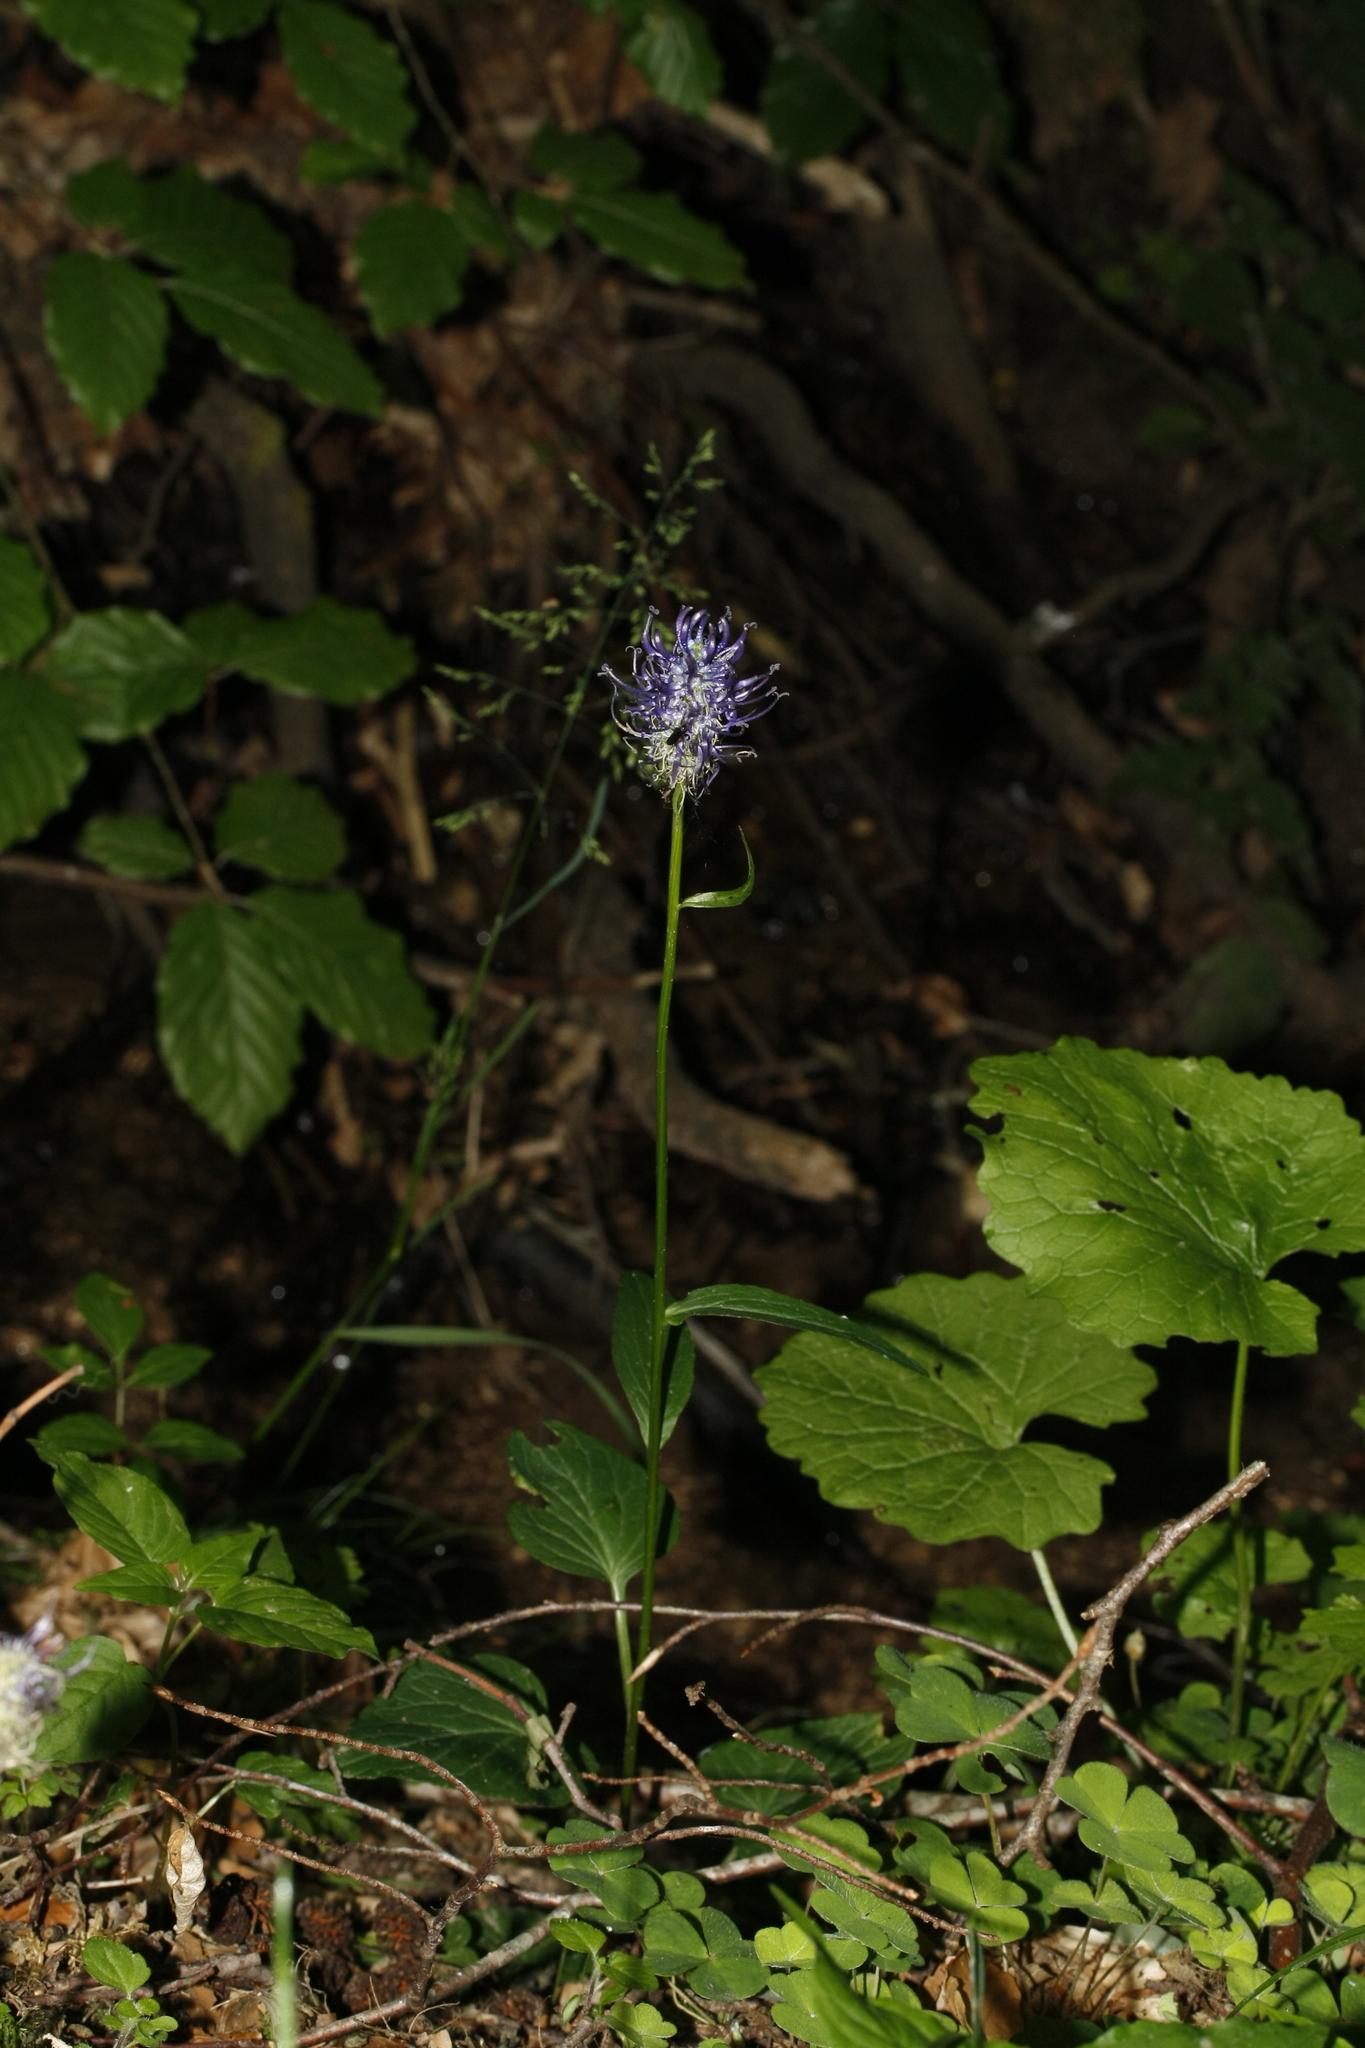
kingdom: Plantae
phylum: Tracheophyta
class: Magnoliopsida
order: Asterales
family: Campanulaceae
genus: Phyteuma
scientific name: Phyteuma nigrum
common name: Black rampion
